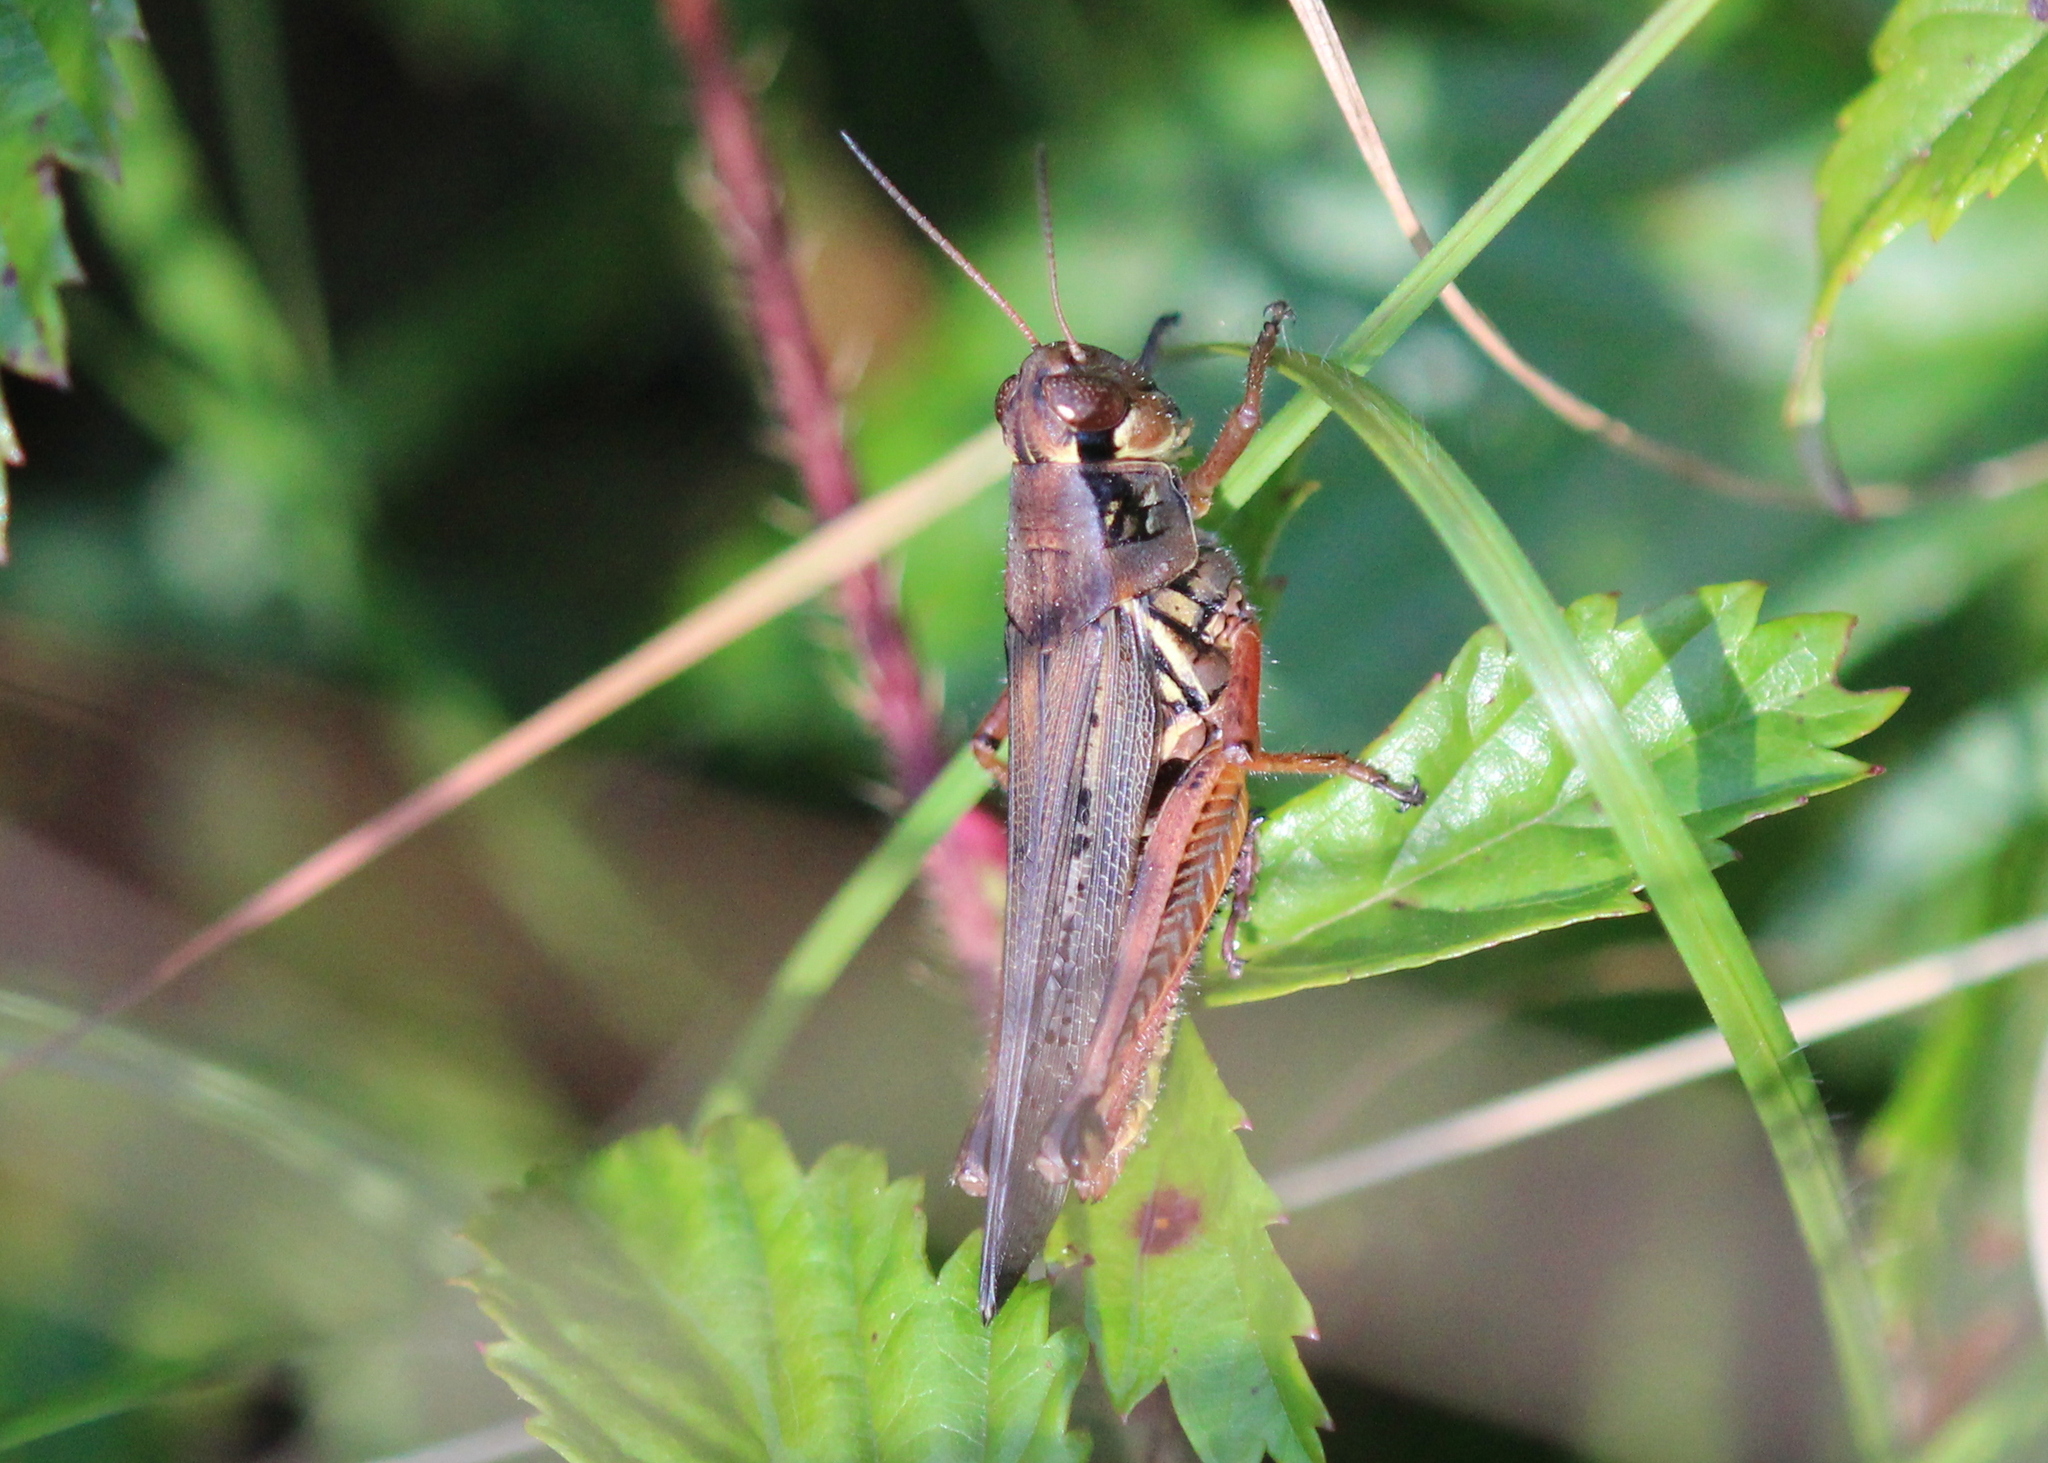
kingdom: Animalia
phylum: Arthropoda
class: Insecta
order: Orthoptera
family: Acrididae
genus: Melanoplus
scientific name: Melanoplus femurrubrum
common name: Red-legged grasshopper
